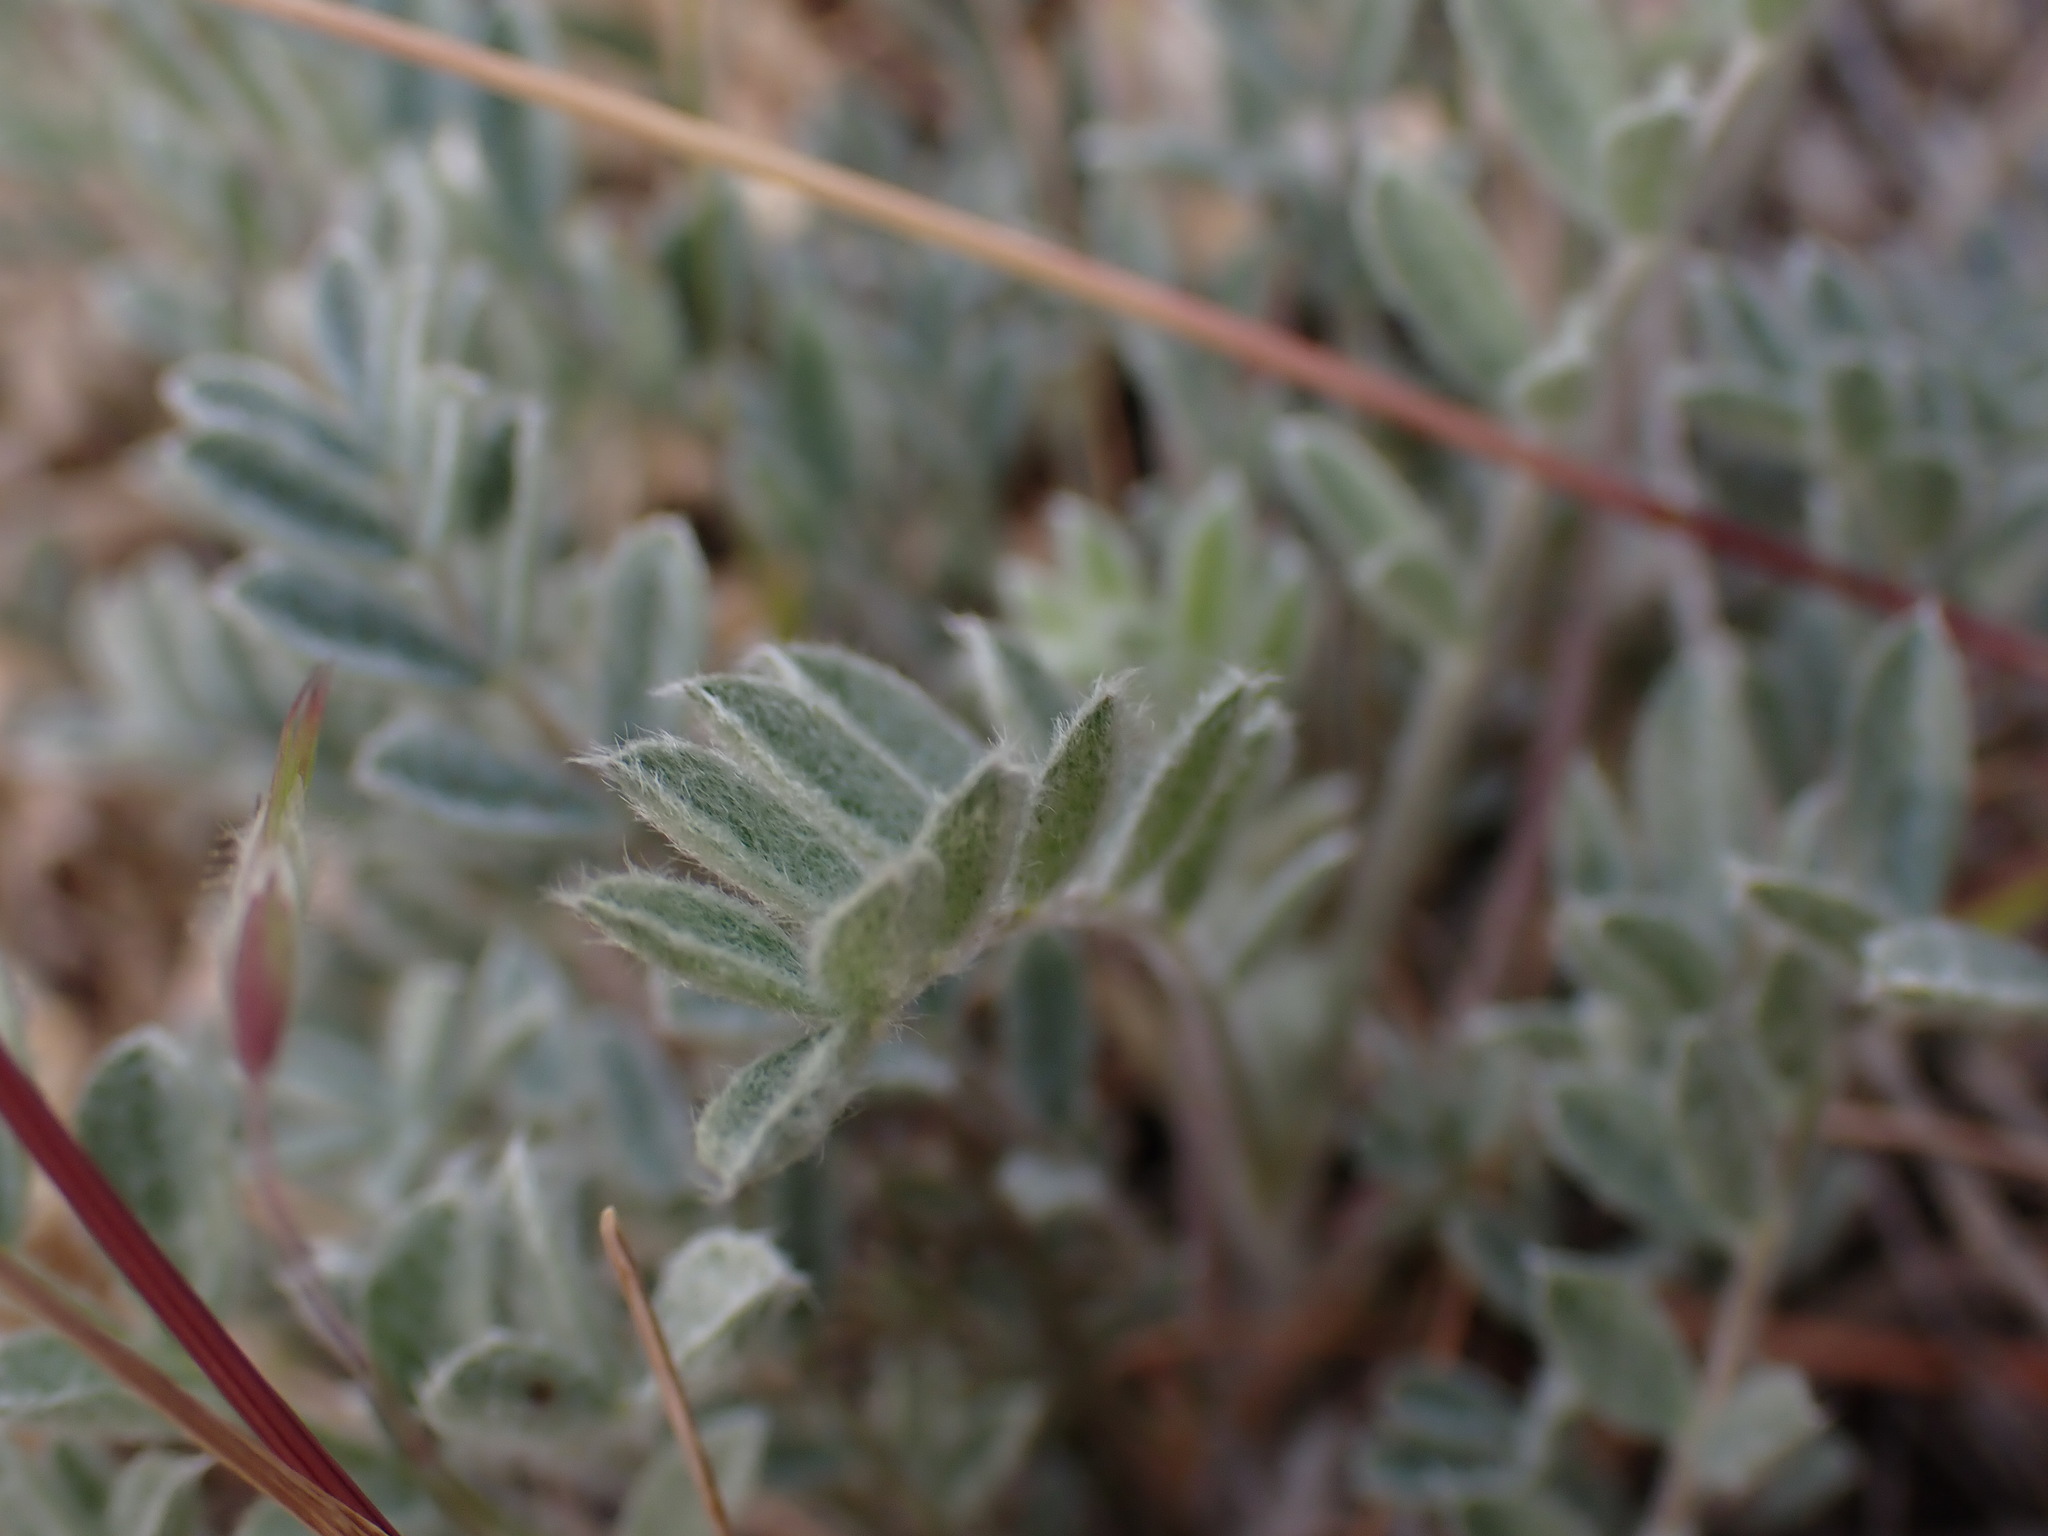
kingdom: Plantae
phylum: Tracheophyta
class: Magnoliopsida
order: Fabales
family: Fabaceae
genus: Astragalus
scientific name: Astragalus purshii
